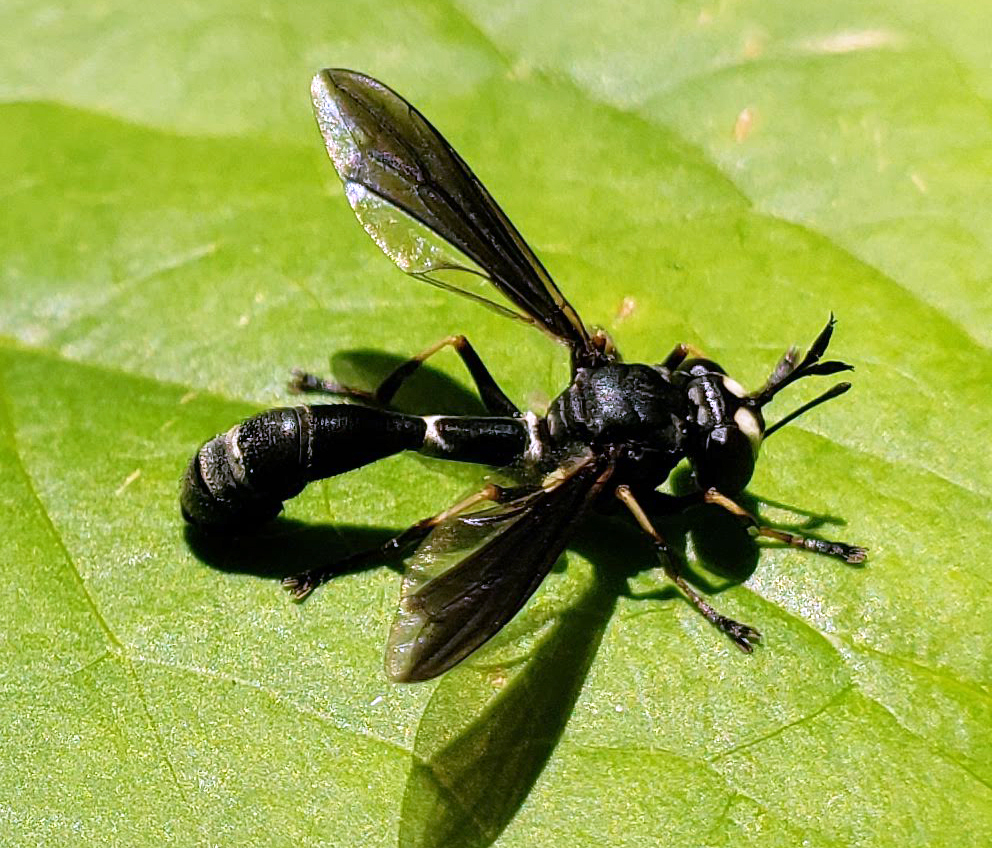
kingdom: Animalia
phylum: Arthropoda
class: Insecta
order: Diptera
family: Conopidae
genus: Physocephala
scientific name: Physocephala tibialis
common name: Common eastern physocephala
